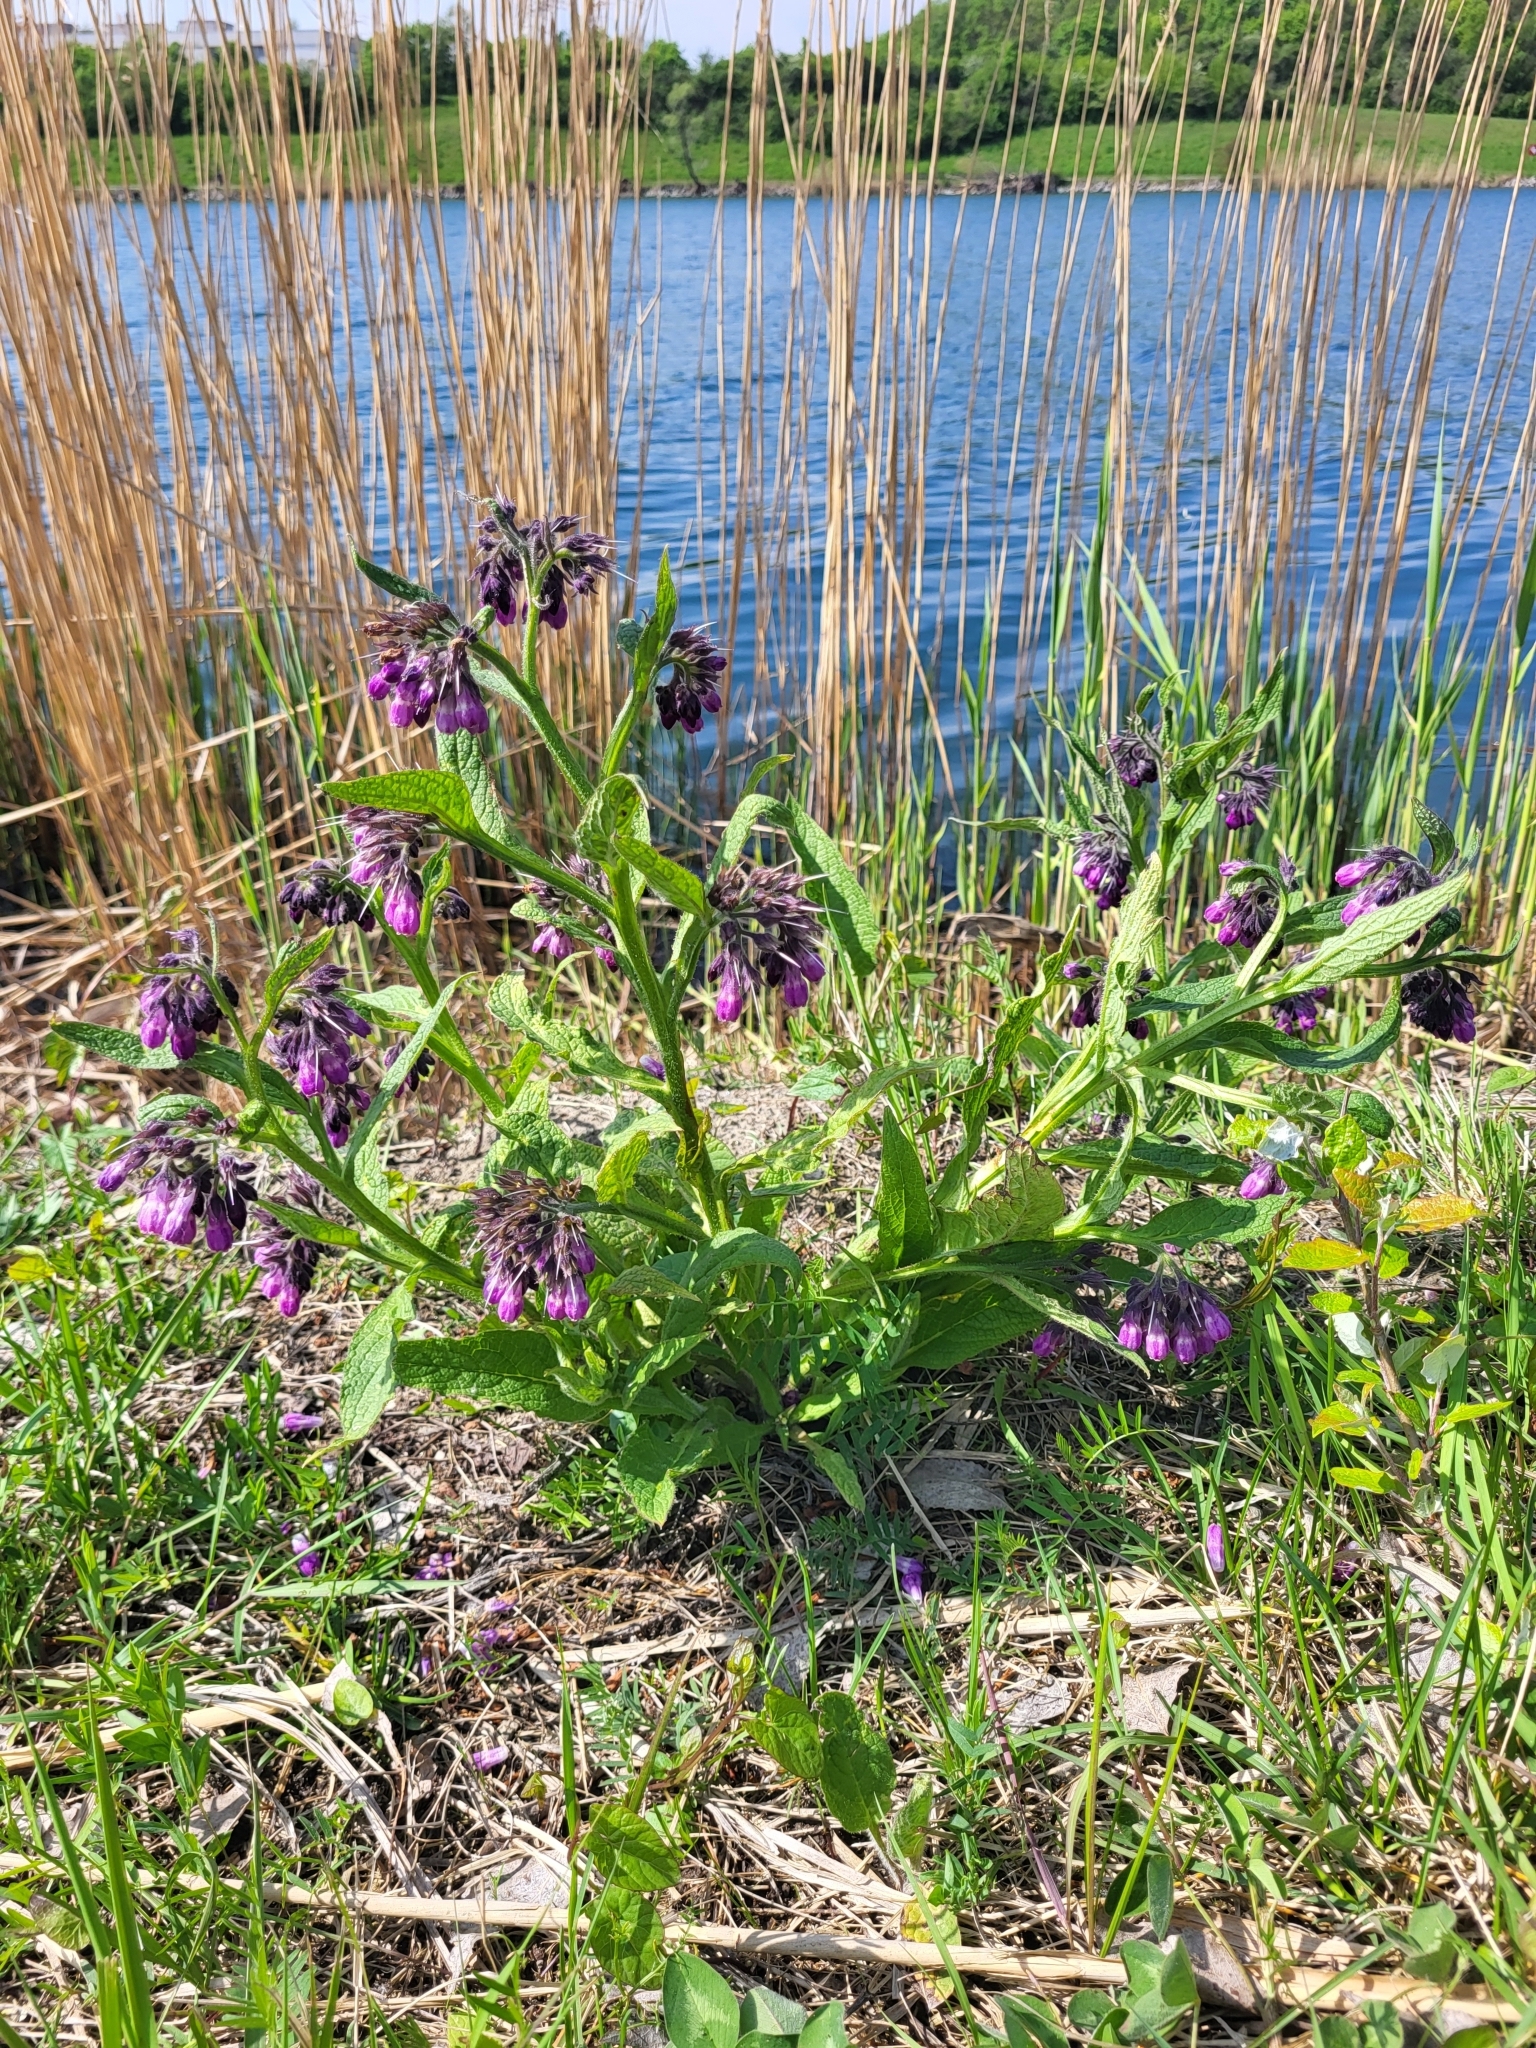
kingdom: Plantae
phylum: Tracheophyta
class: Magnoliopsida
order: Boraginales
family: Boraginaceae
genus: Symphytum
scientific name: Symphytum officinale
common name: Common comfrey
